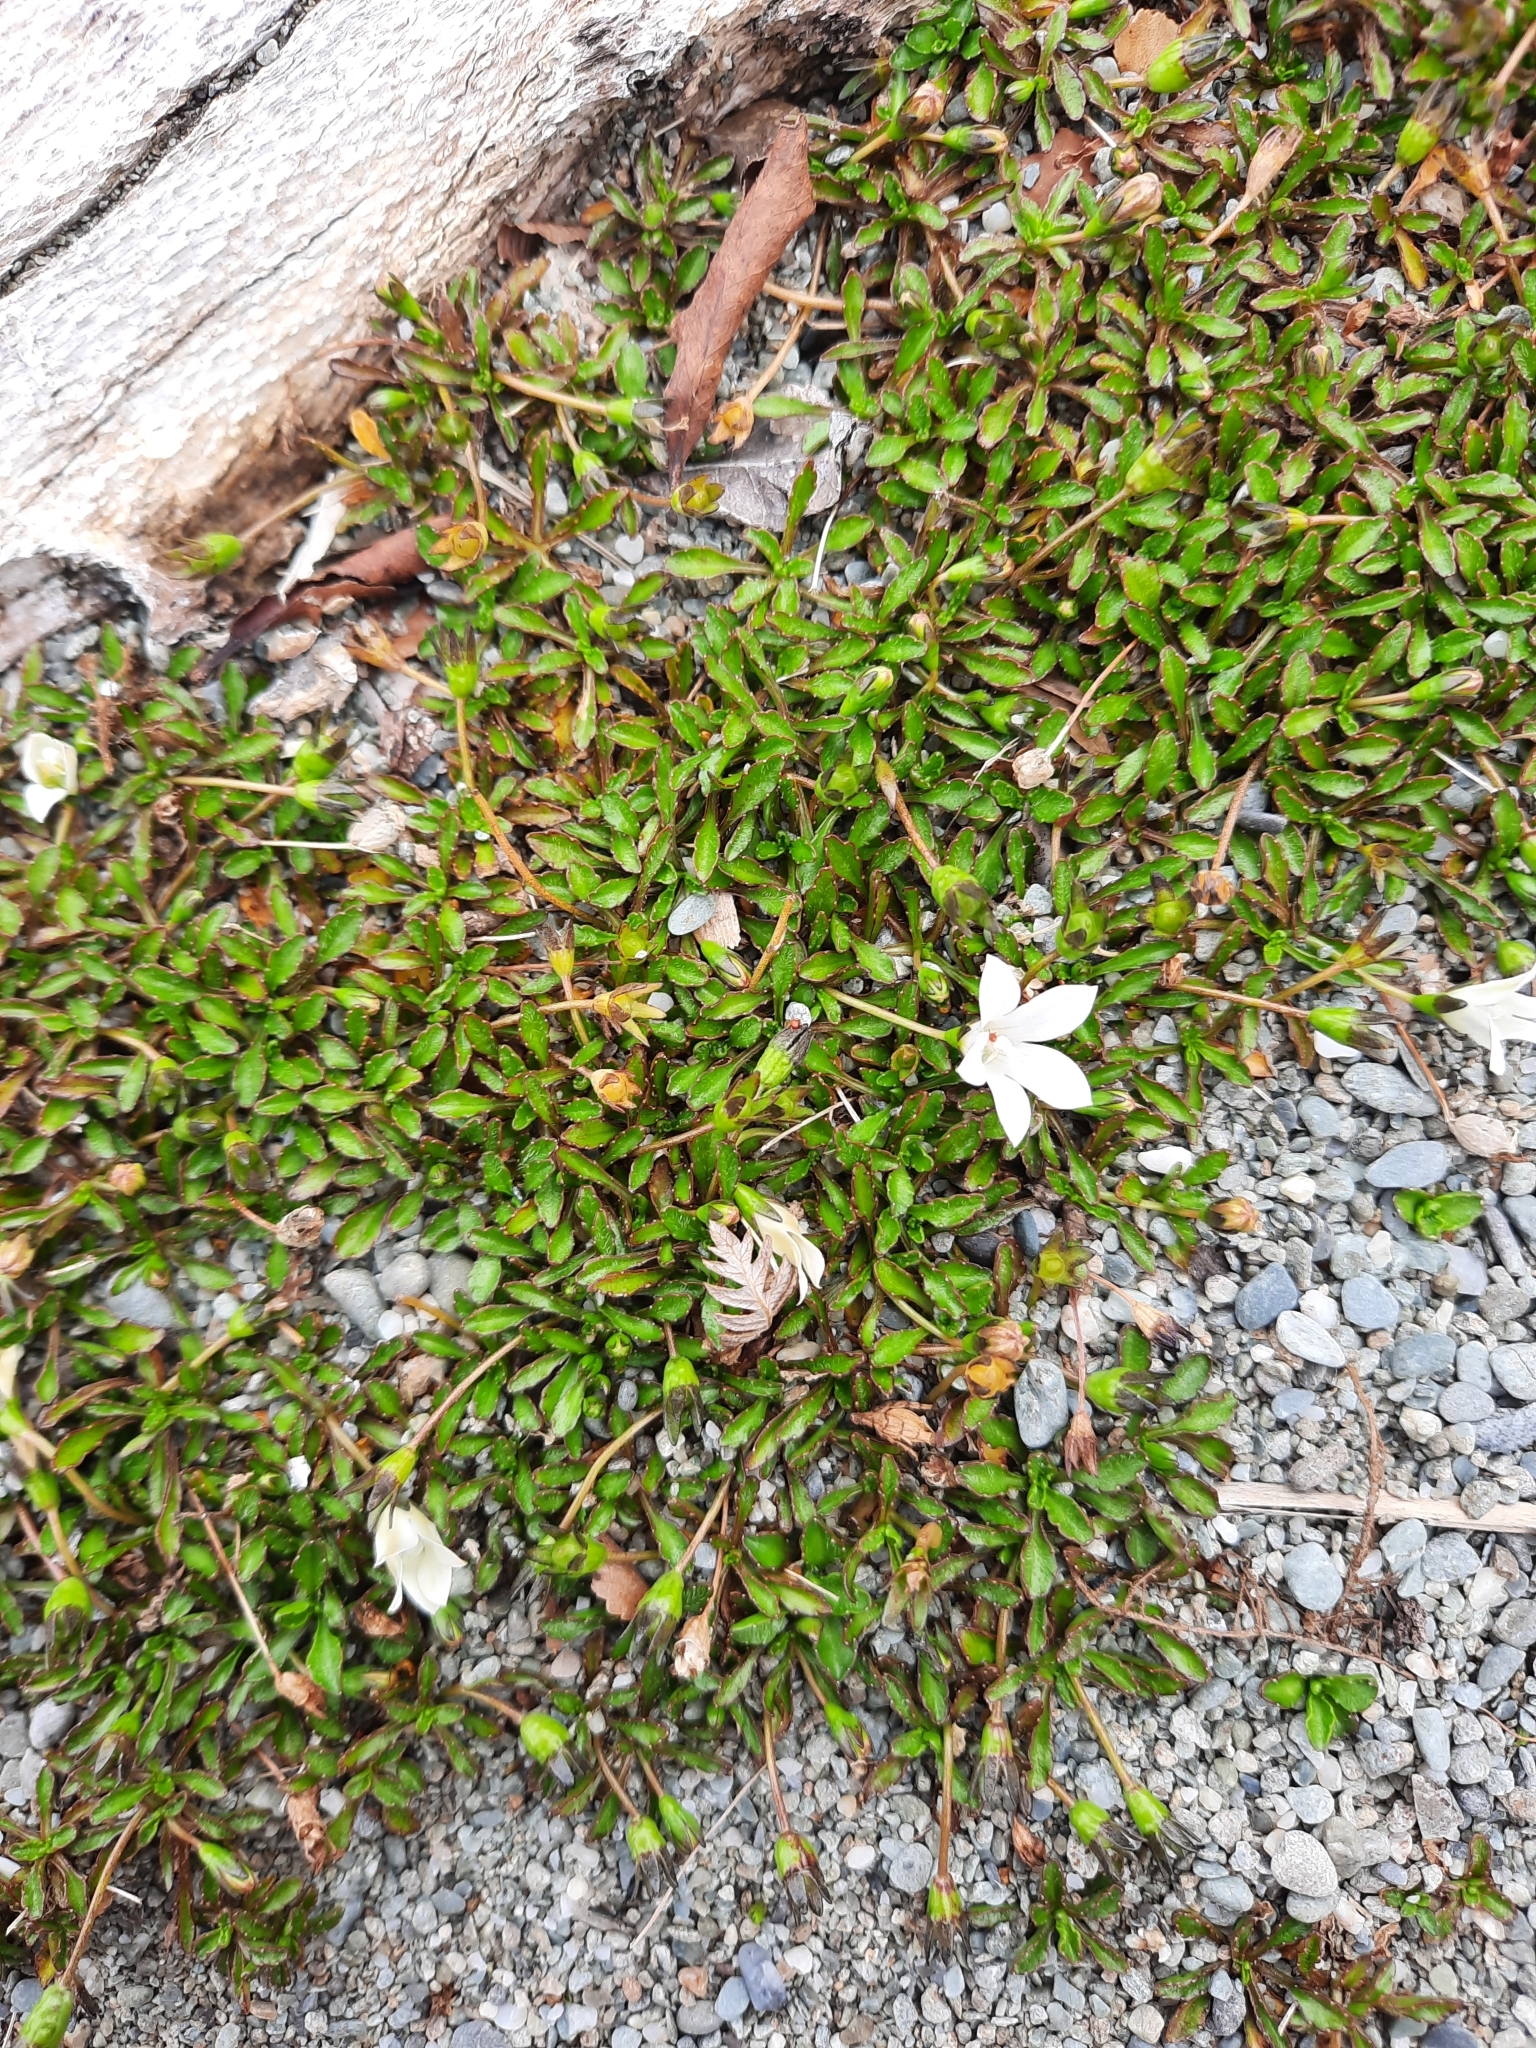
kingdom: Plantae
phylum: Tracheophyta
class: Magnoliopsida
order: Asterales
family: Campanulaceae
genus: Wahlenbergia
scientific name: Wahlenbergia congesta
